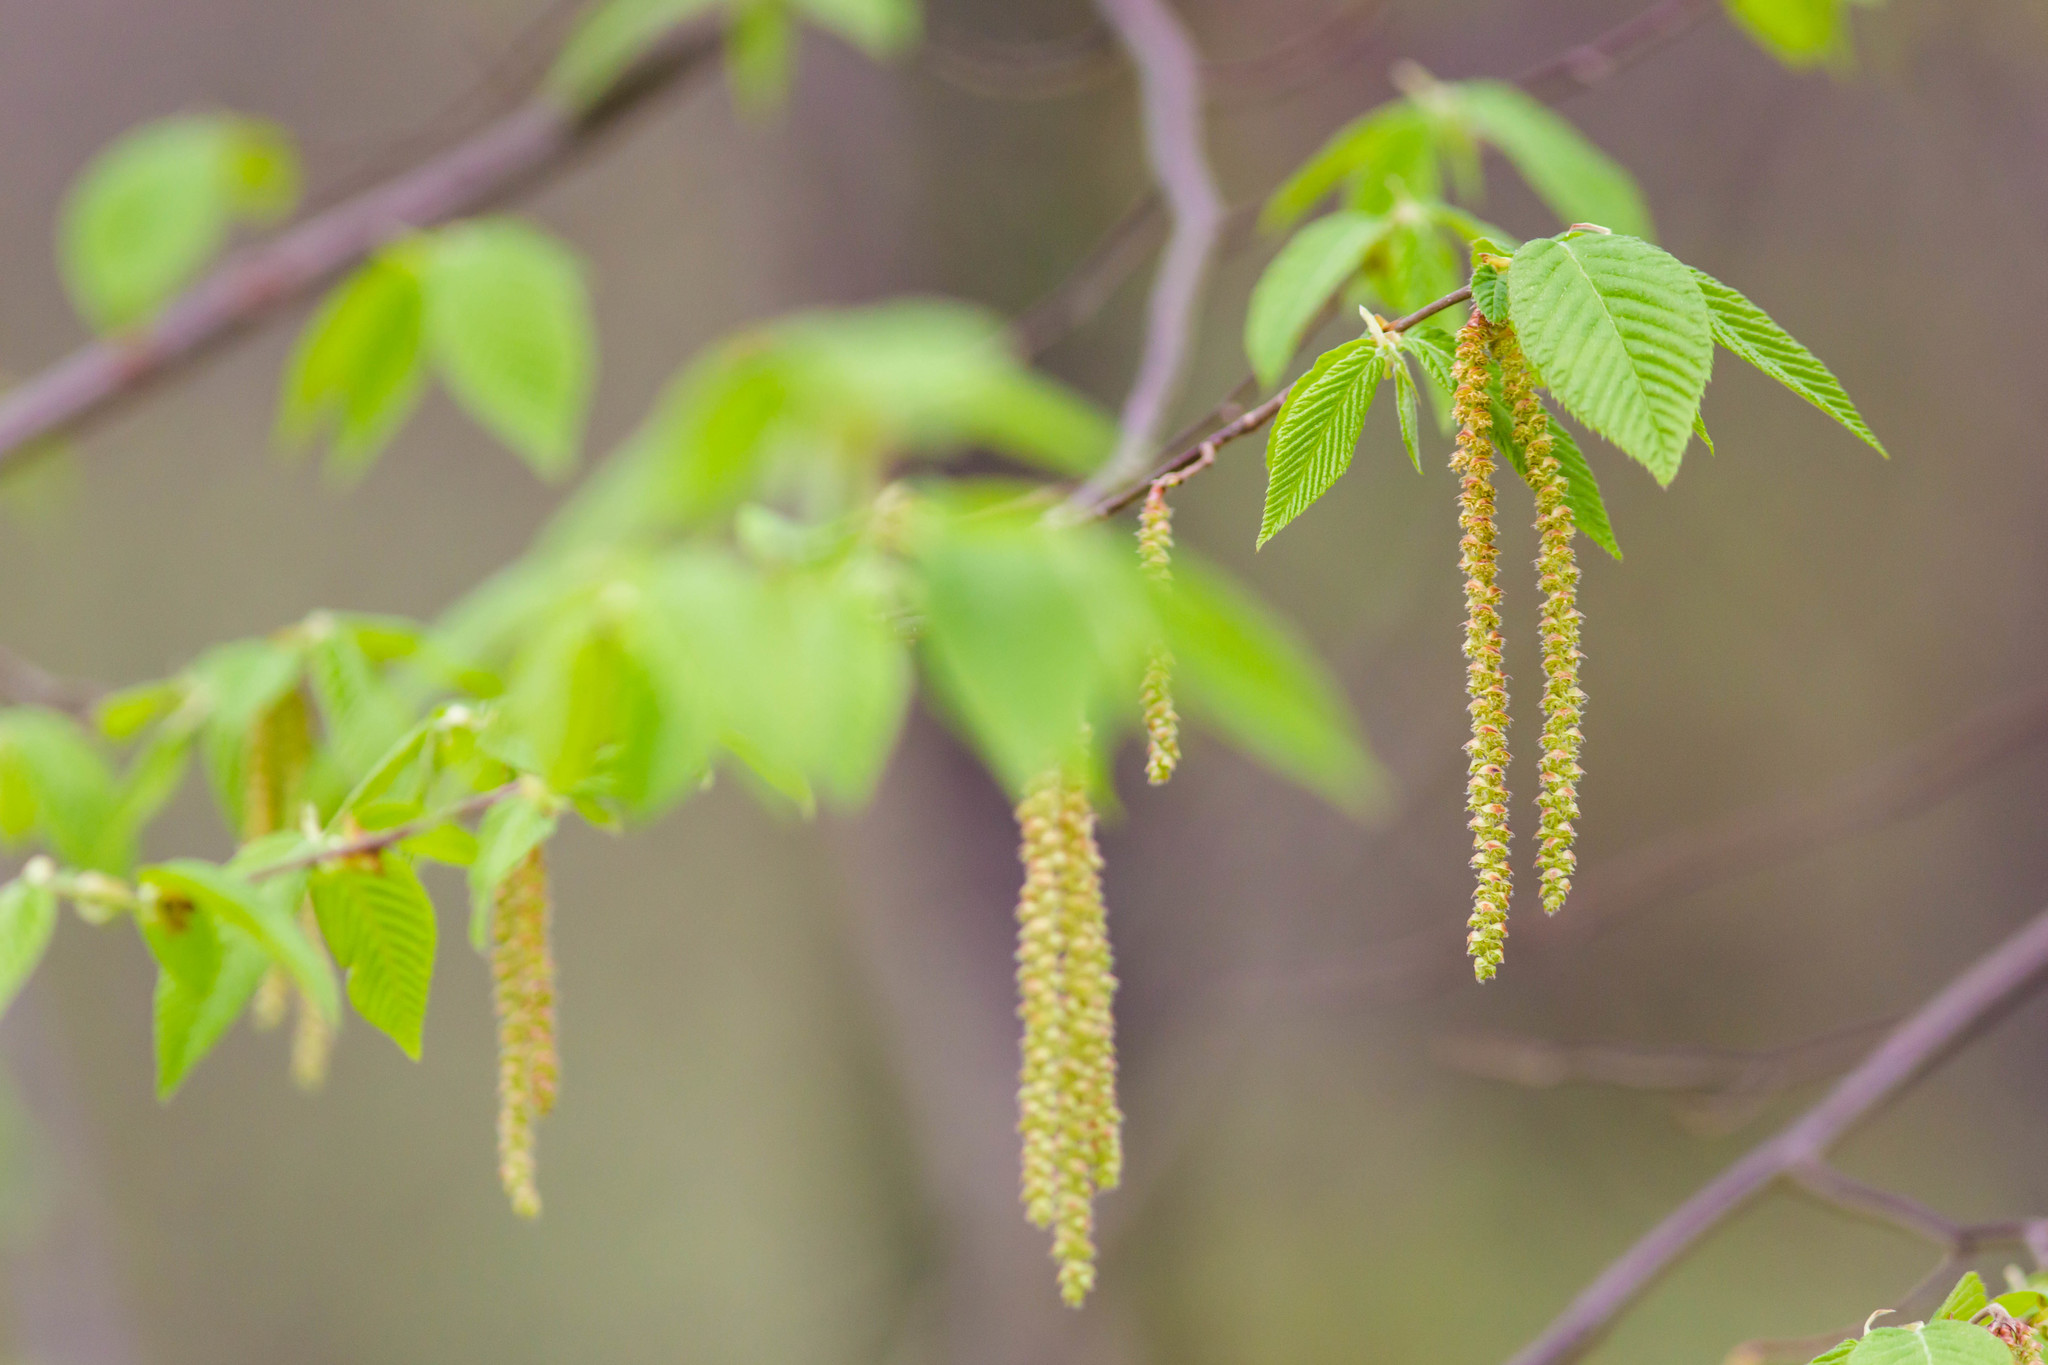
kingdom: Plantae
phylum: Tracheophyta
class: Magnoliopsida
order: Fagales
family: Betulaceae
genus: Ostrya
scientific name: Ostrya virginiana
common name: Ironwood
